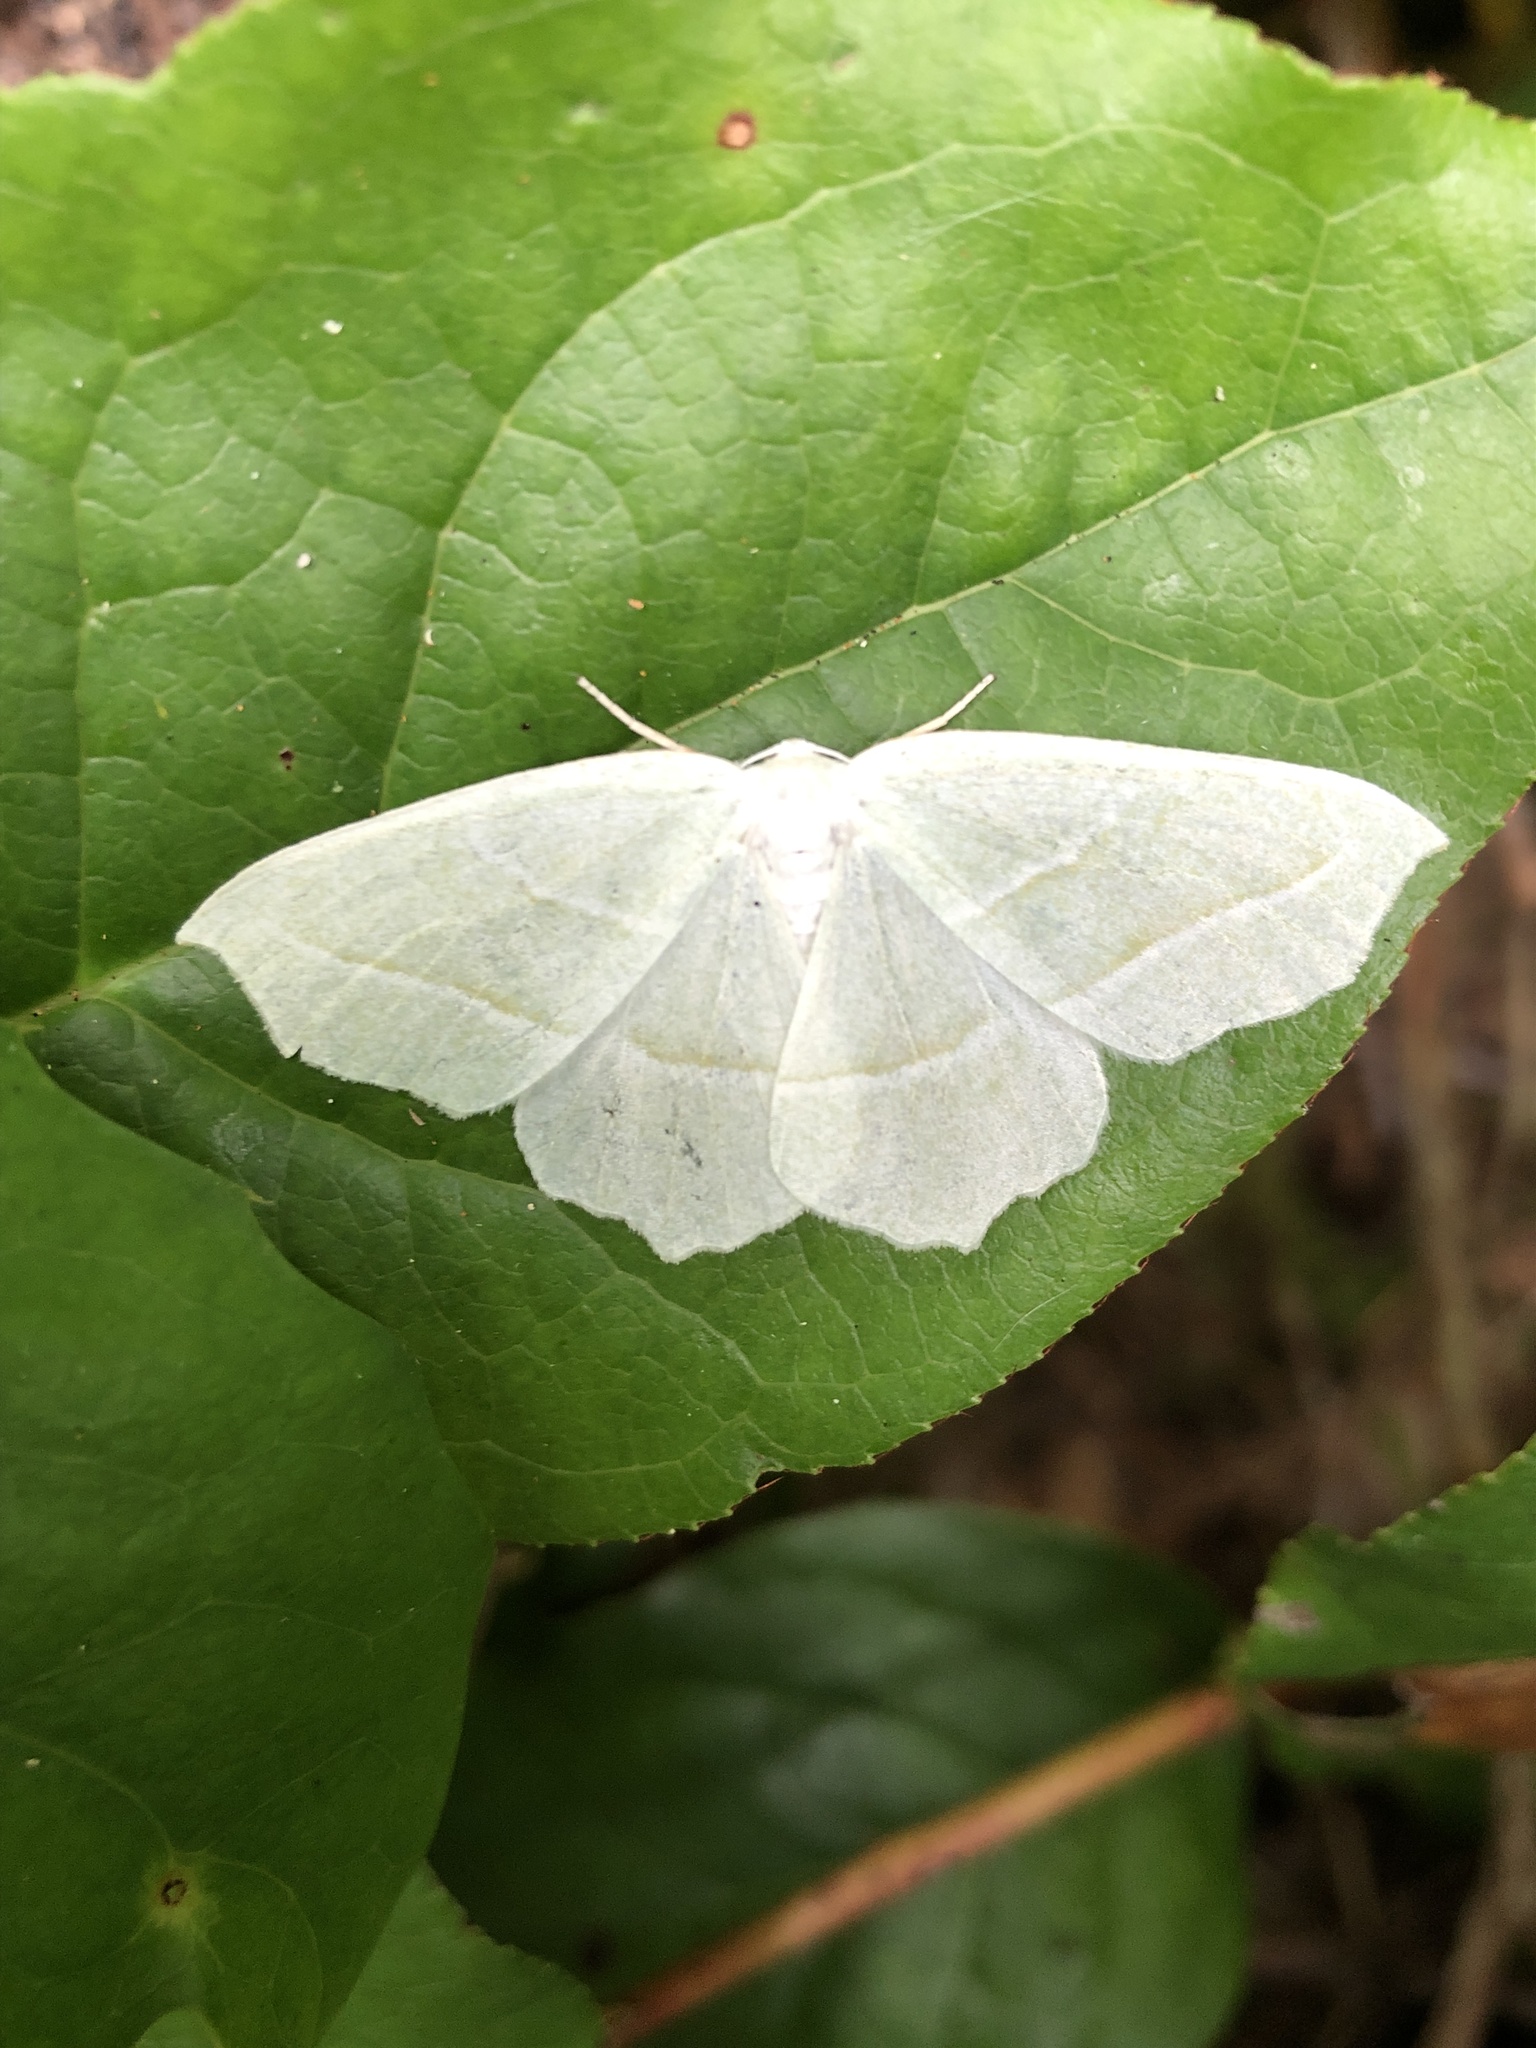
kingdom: Animalia
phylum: Arthropoda
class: Insecta
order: Lepidoptera
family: Geometridae
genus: Campaea
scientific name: Campaea perlata
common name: Fringed looper
